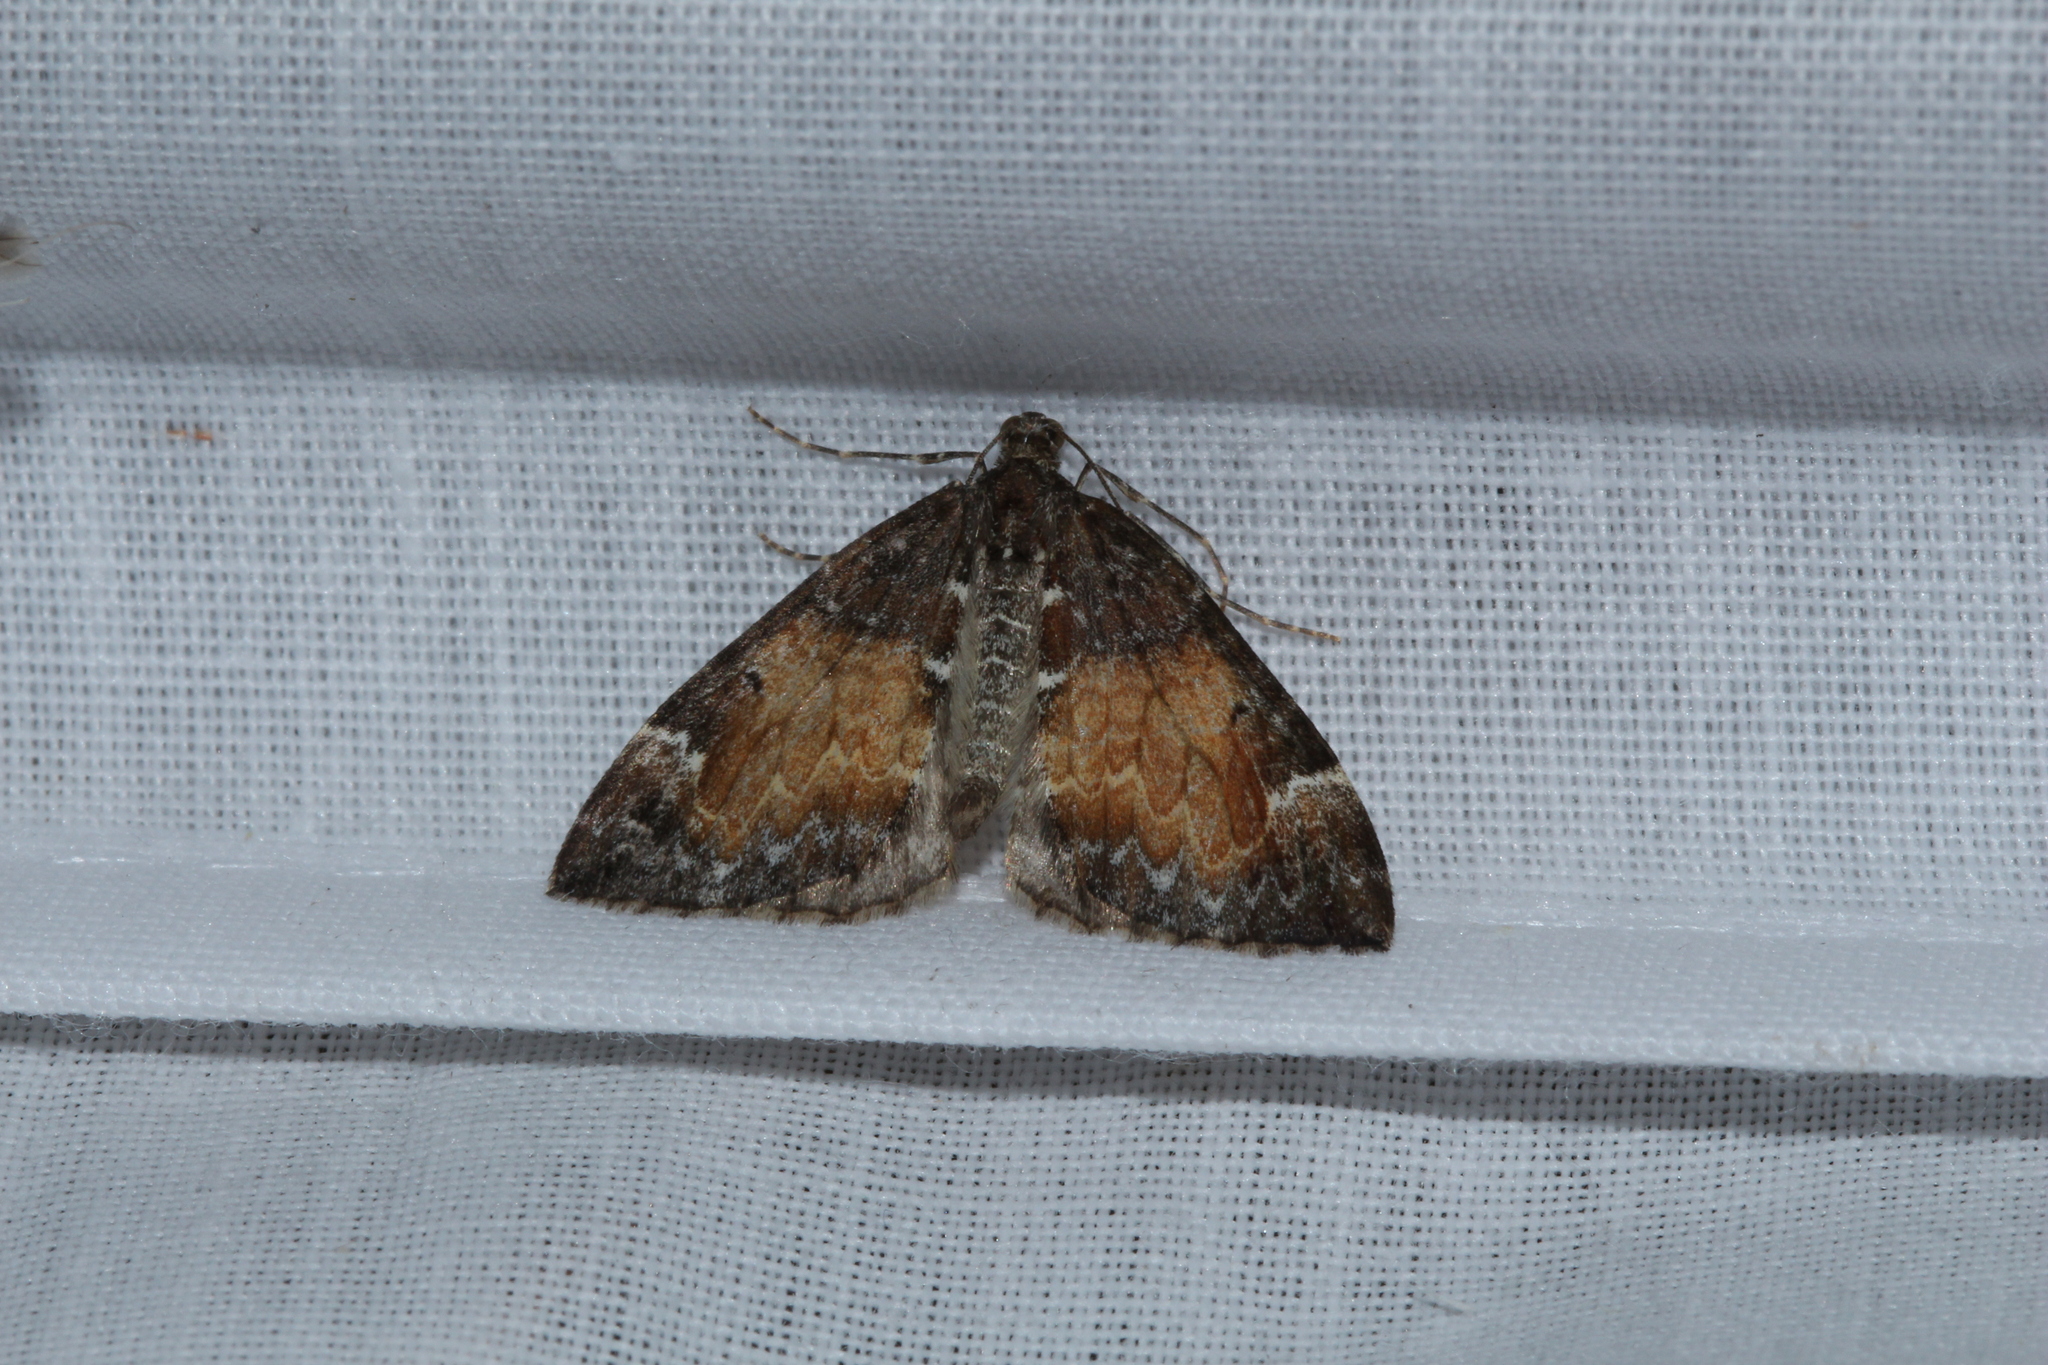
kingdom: Animalia
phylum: Arthropoda
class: Insecta
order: Lepidoptera
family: Geometridae
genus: Dysstroma
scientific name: Dysstroma truncata
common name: Common marbled carpet
